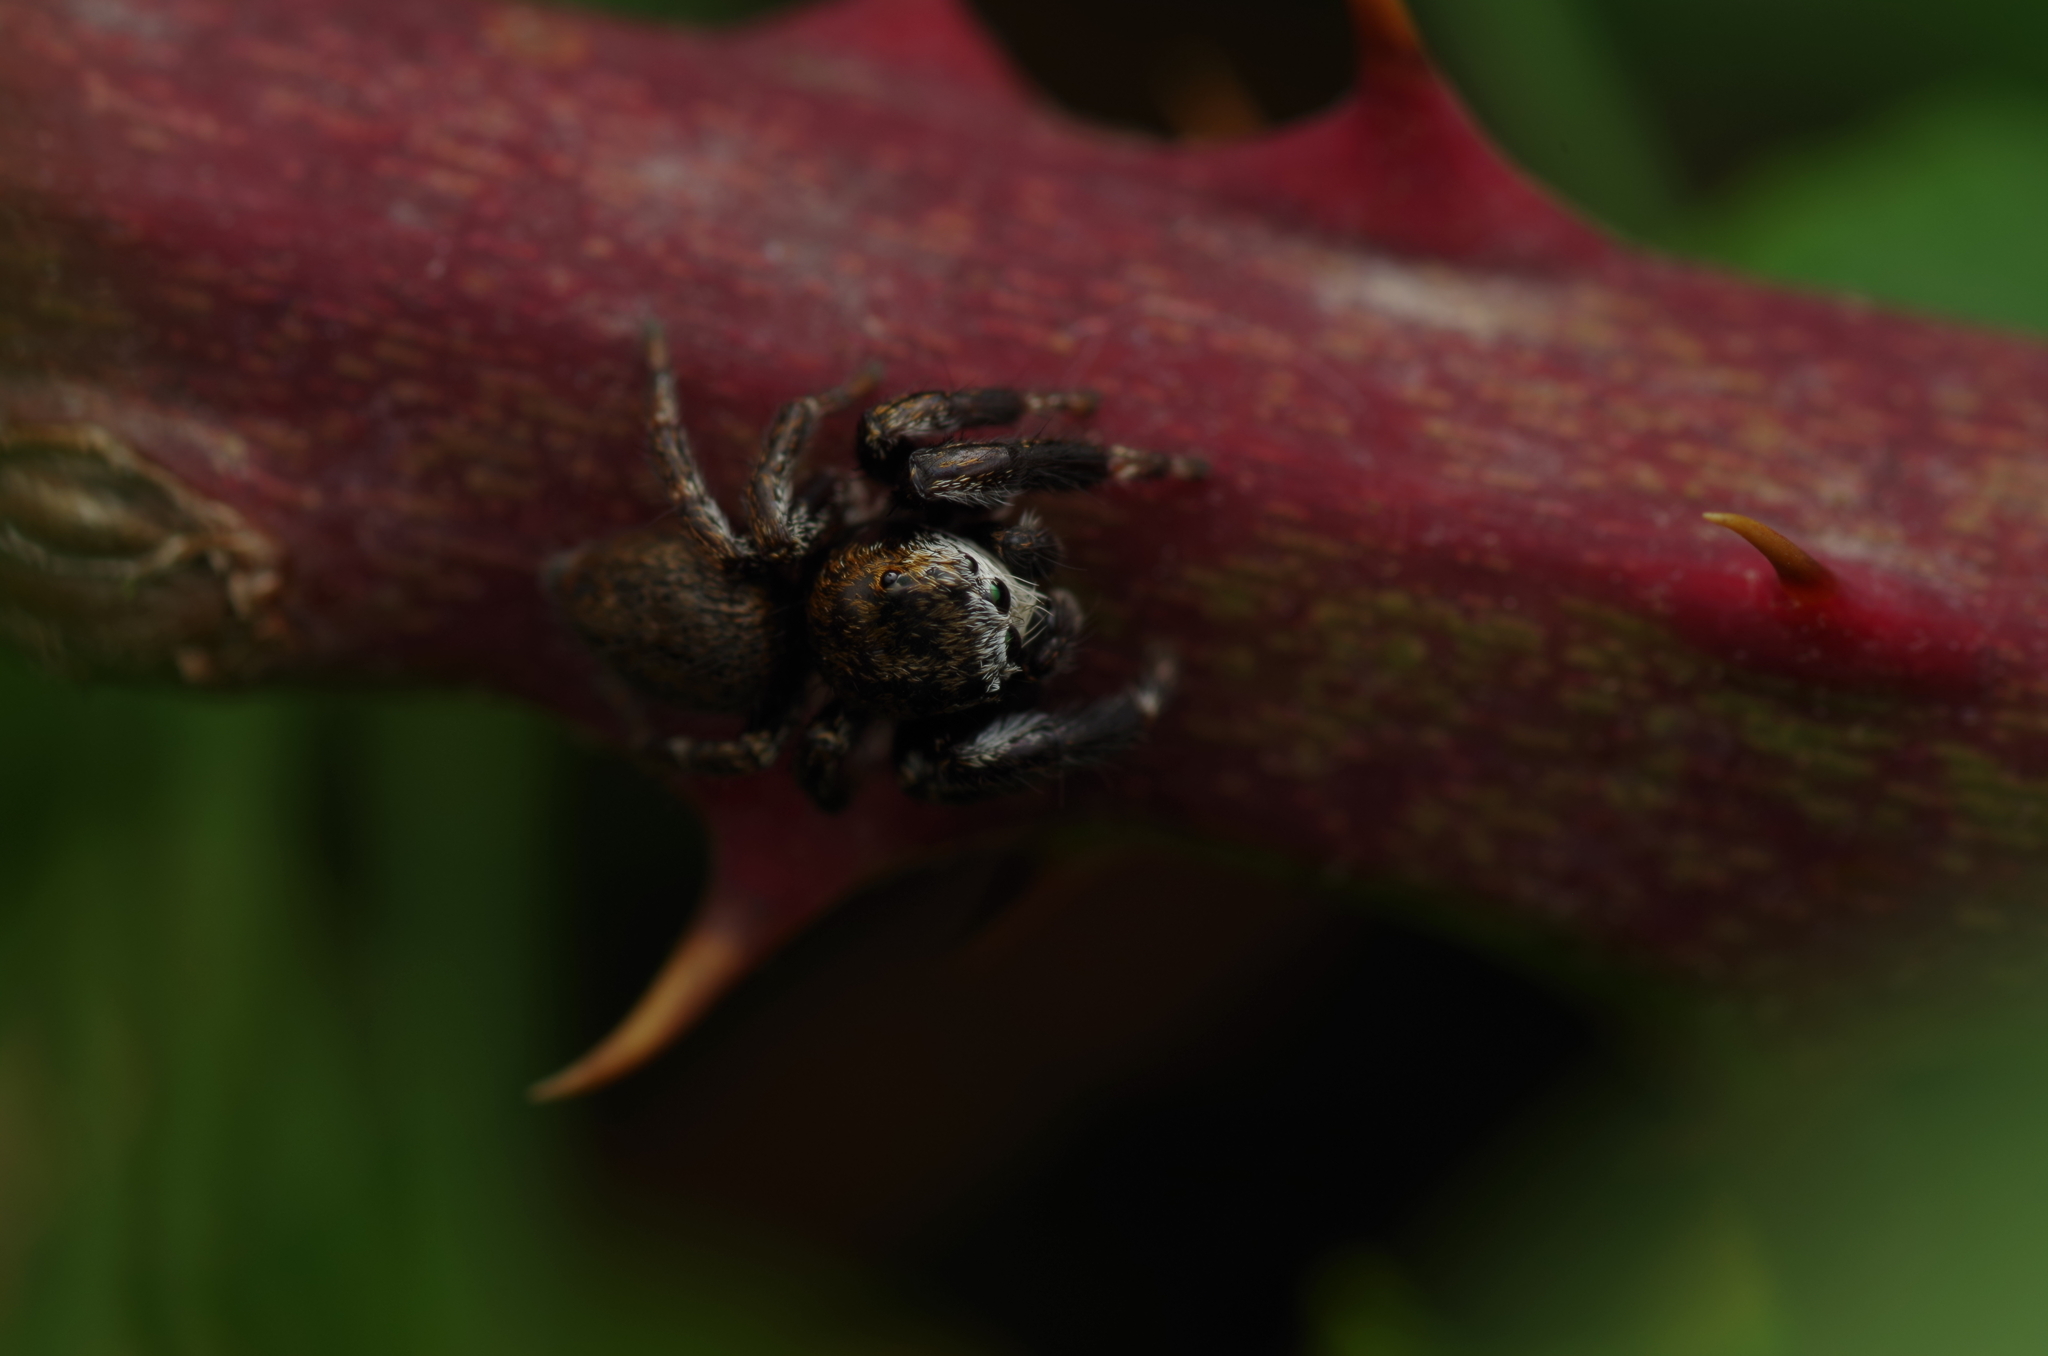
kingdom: Animalia
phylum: Arthropoda
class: Arachnida
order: Araneae
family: Salticidae
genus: Evarcha
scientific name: Evarcha arcuata
